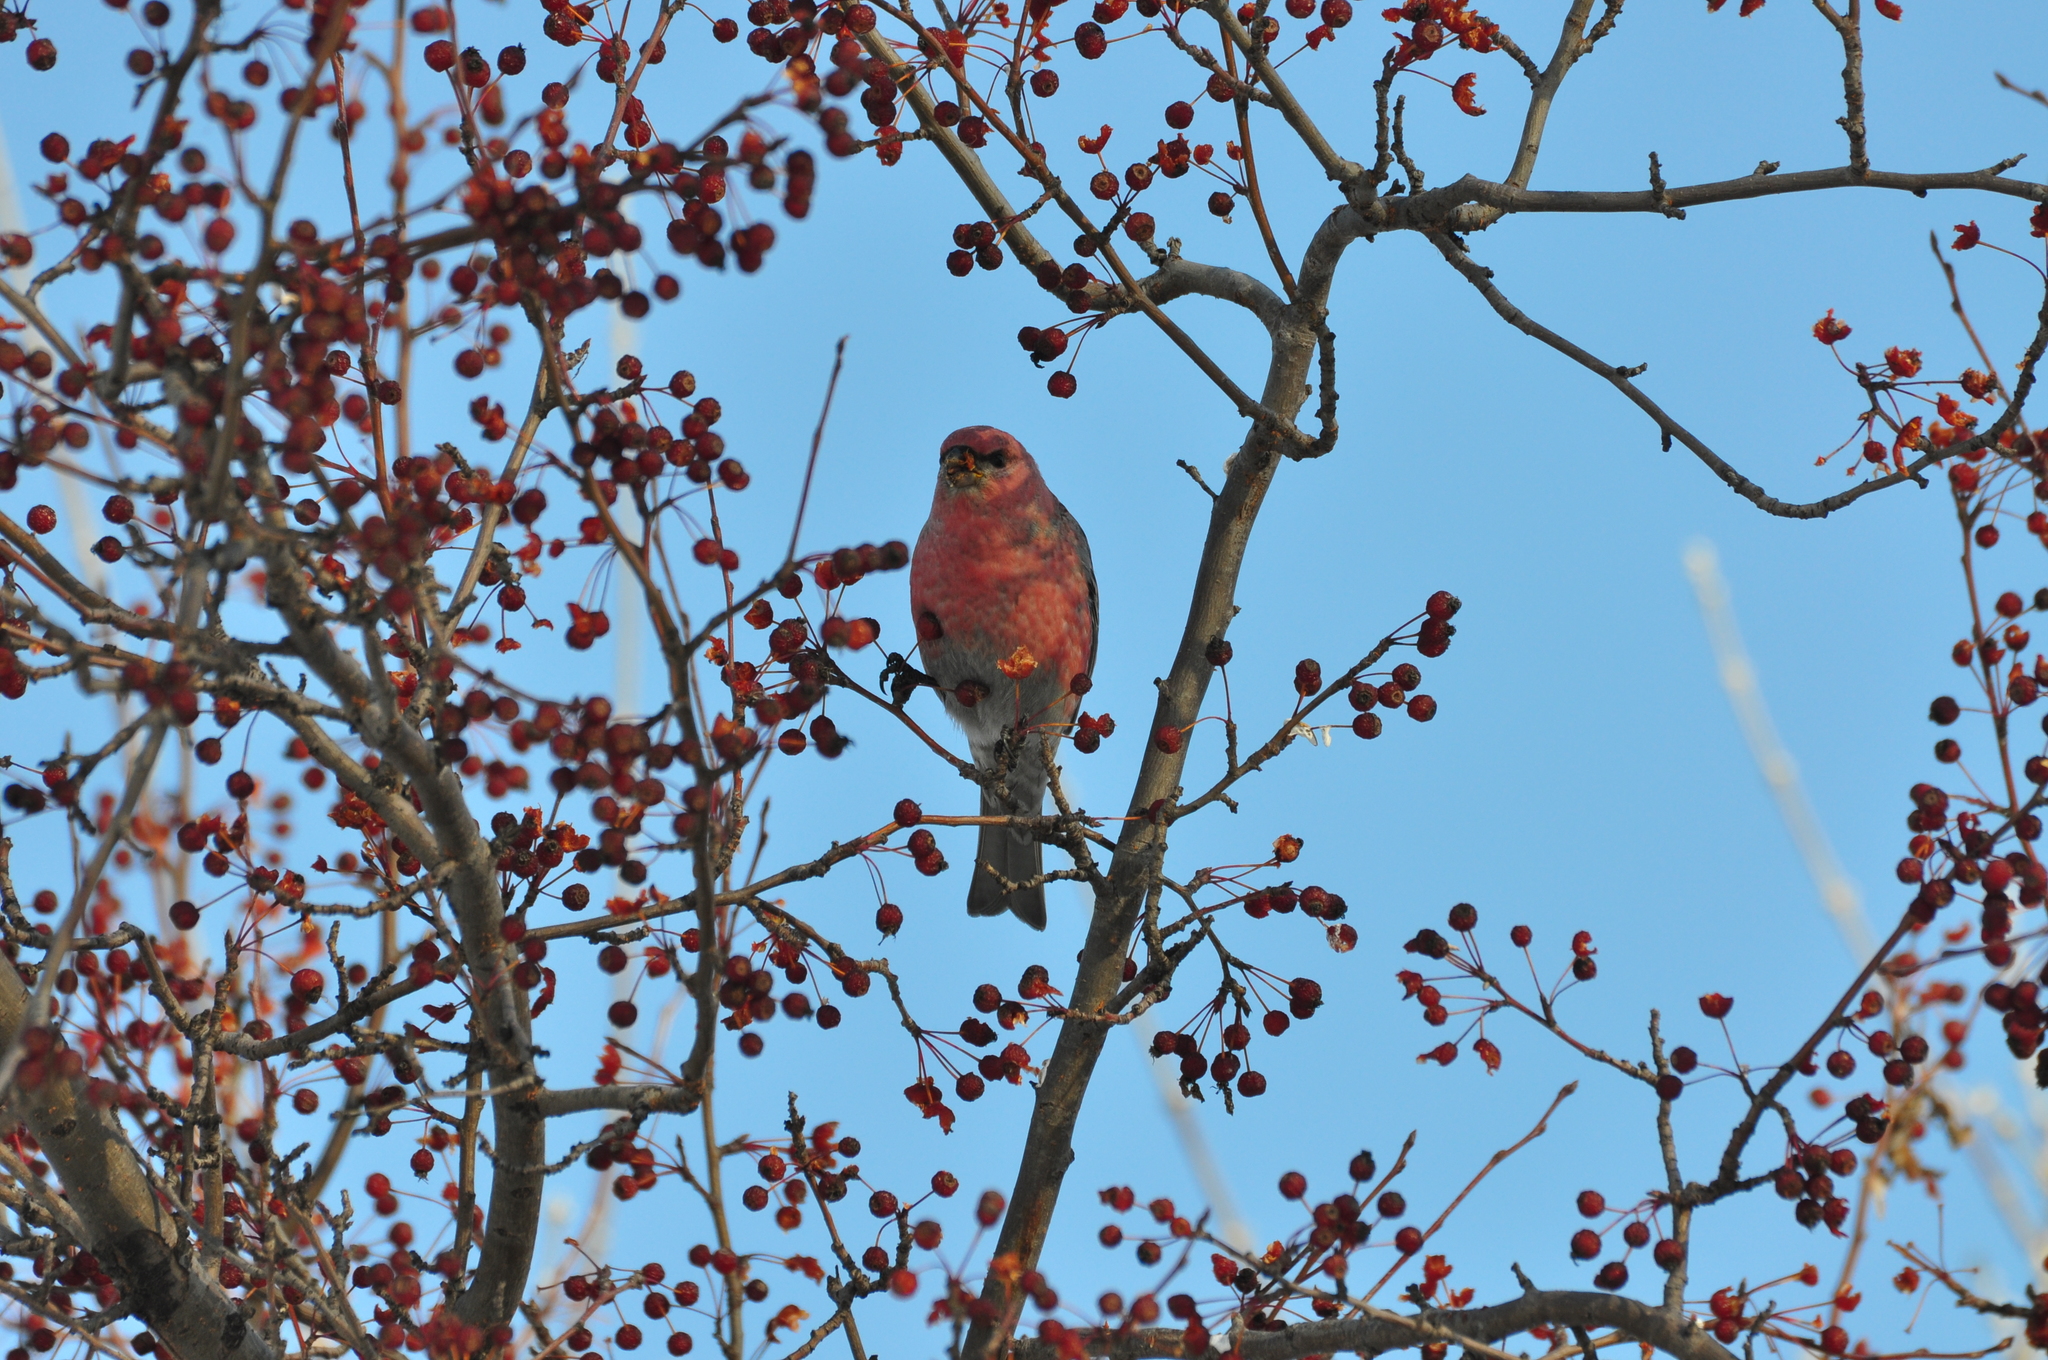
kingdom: Animalia
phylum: Chordata
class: Aves
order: Passeriformes
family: Fringillidae
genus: Pinicola
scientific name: Pinicola enucleator
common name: Pine grosbeak
